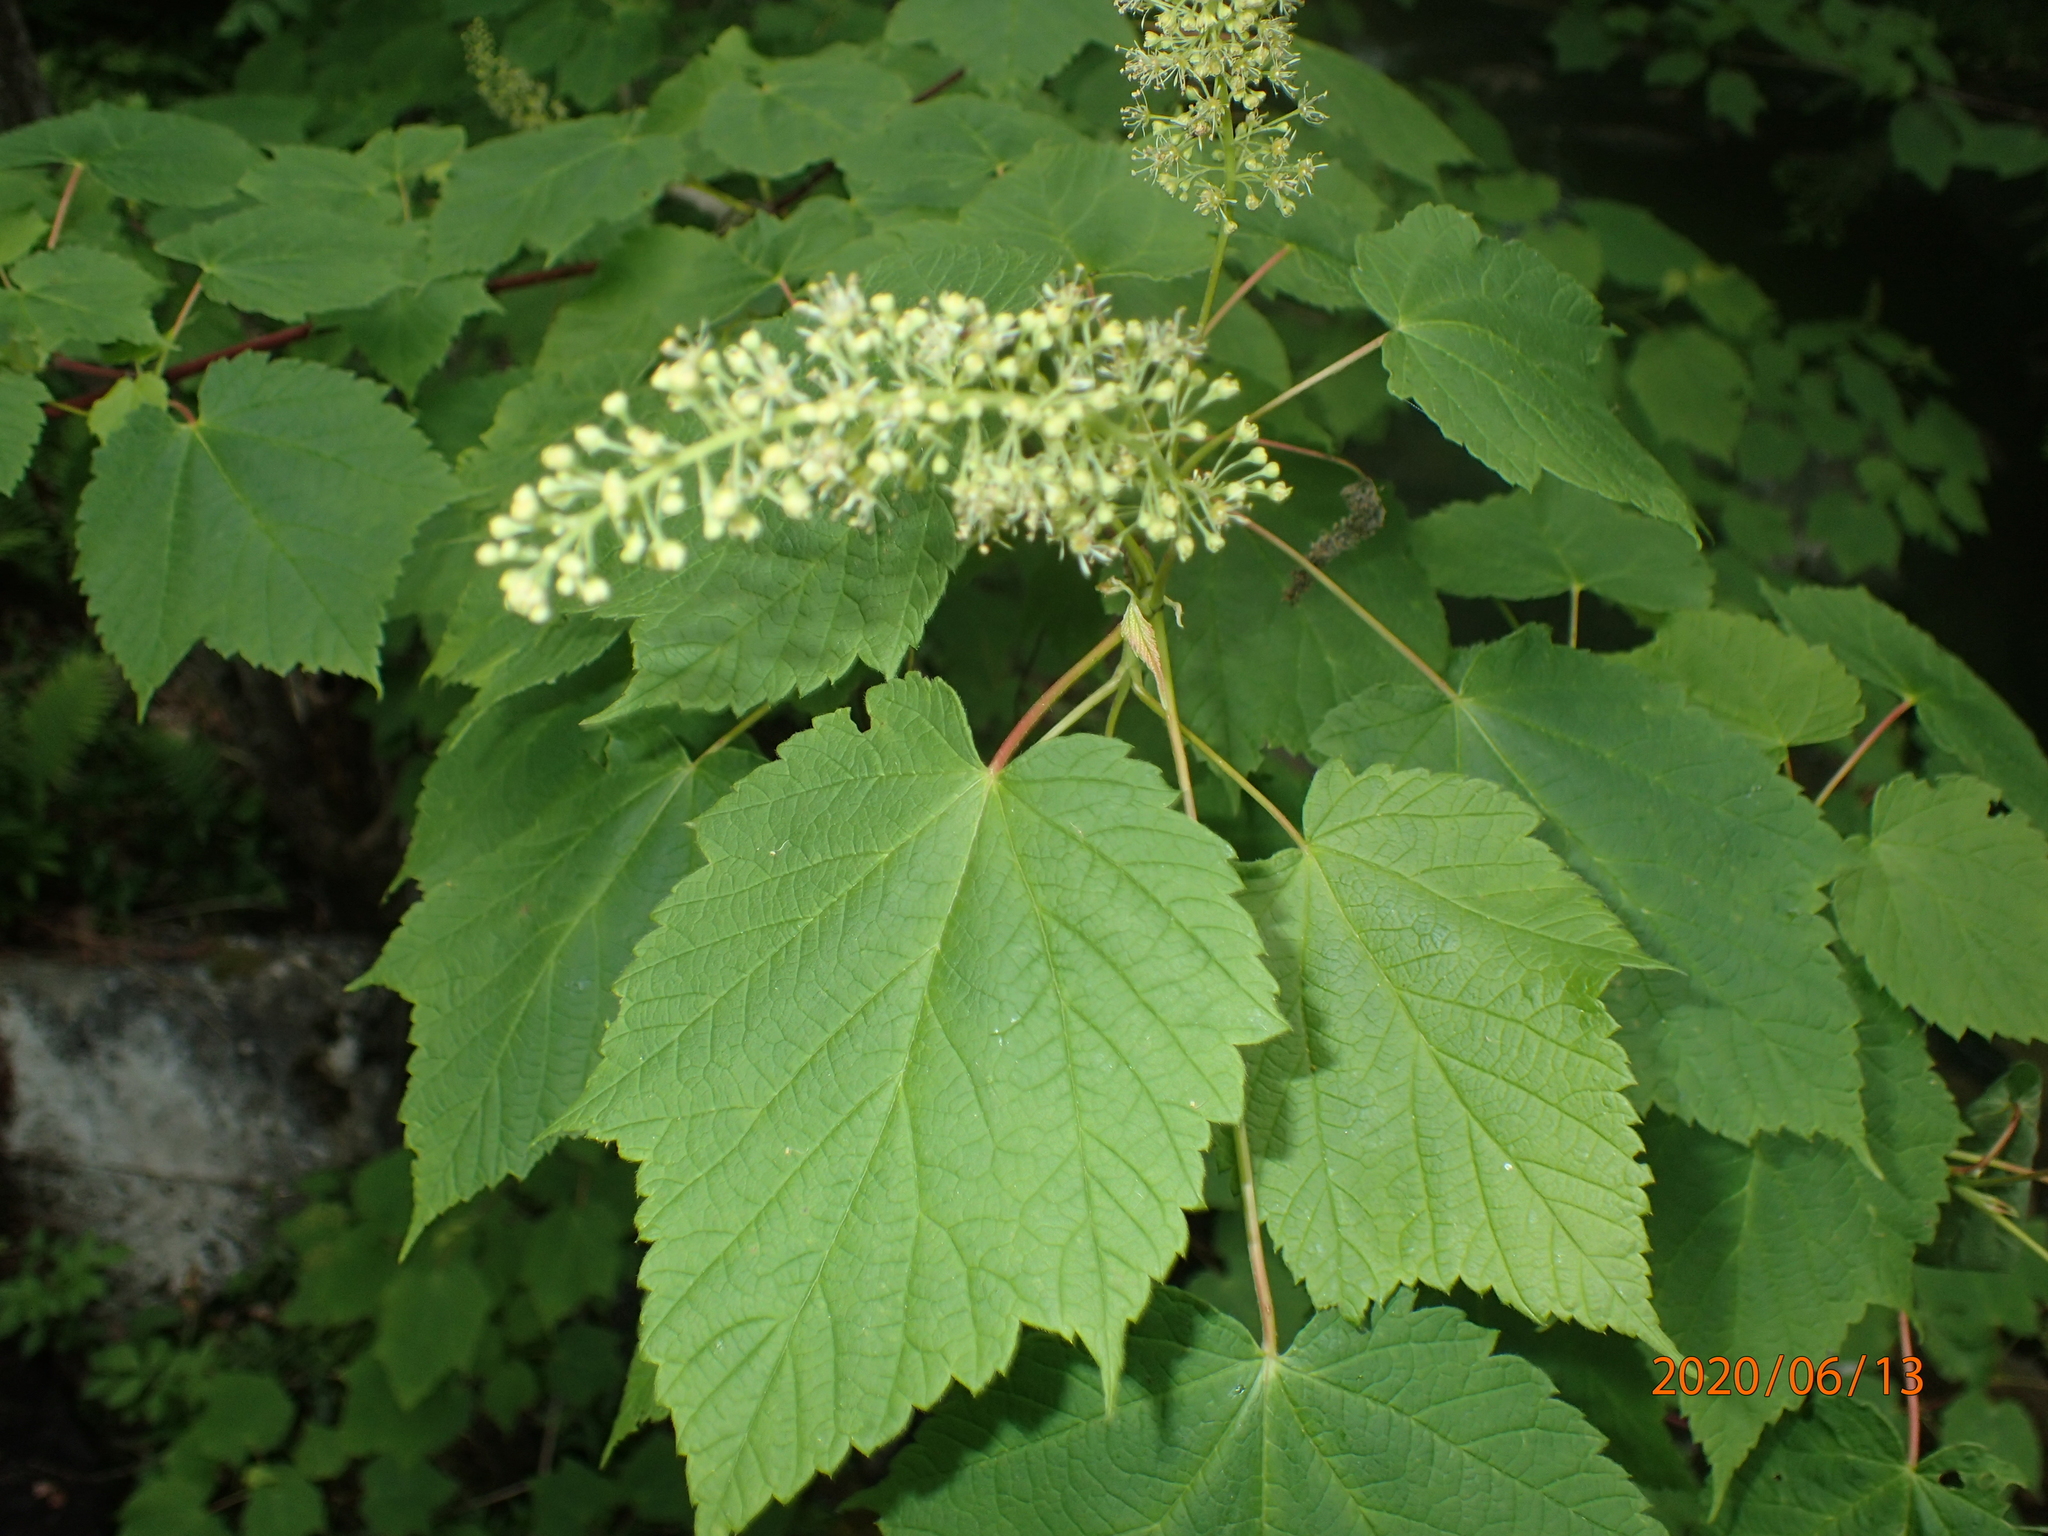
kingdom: Plantae
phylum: Tracheophyta
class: Magnoliopsida
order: Sapindales
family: Sapindaceae
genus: Acer
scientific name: Acer spicatum
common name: Mountain maple
